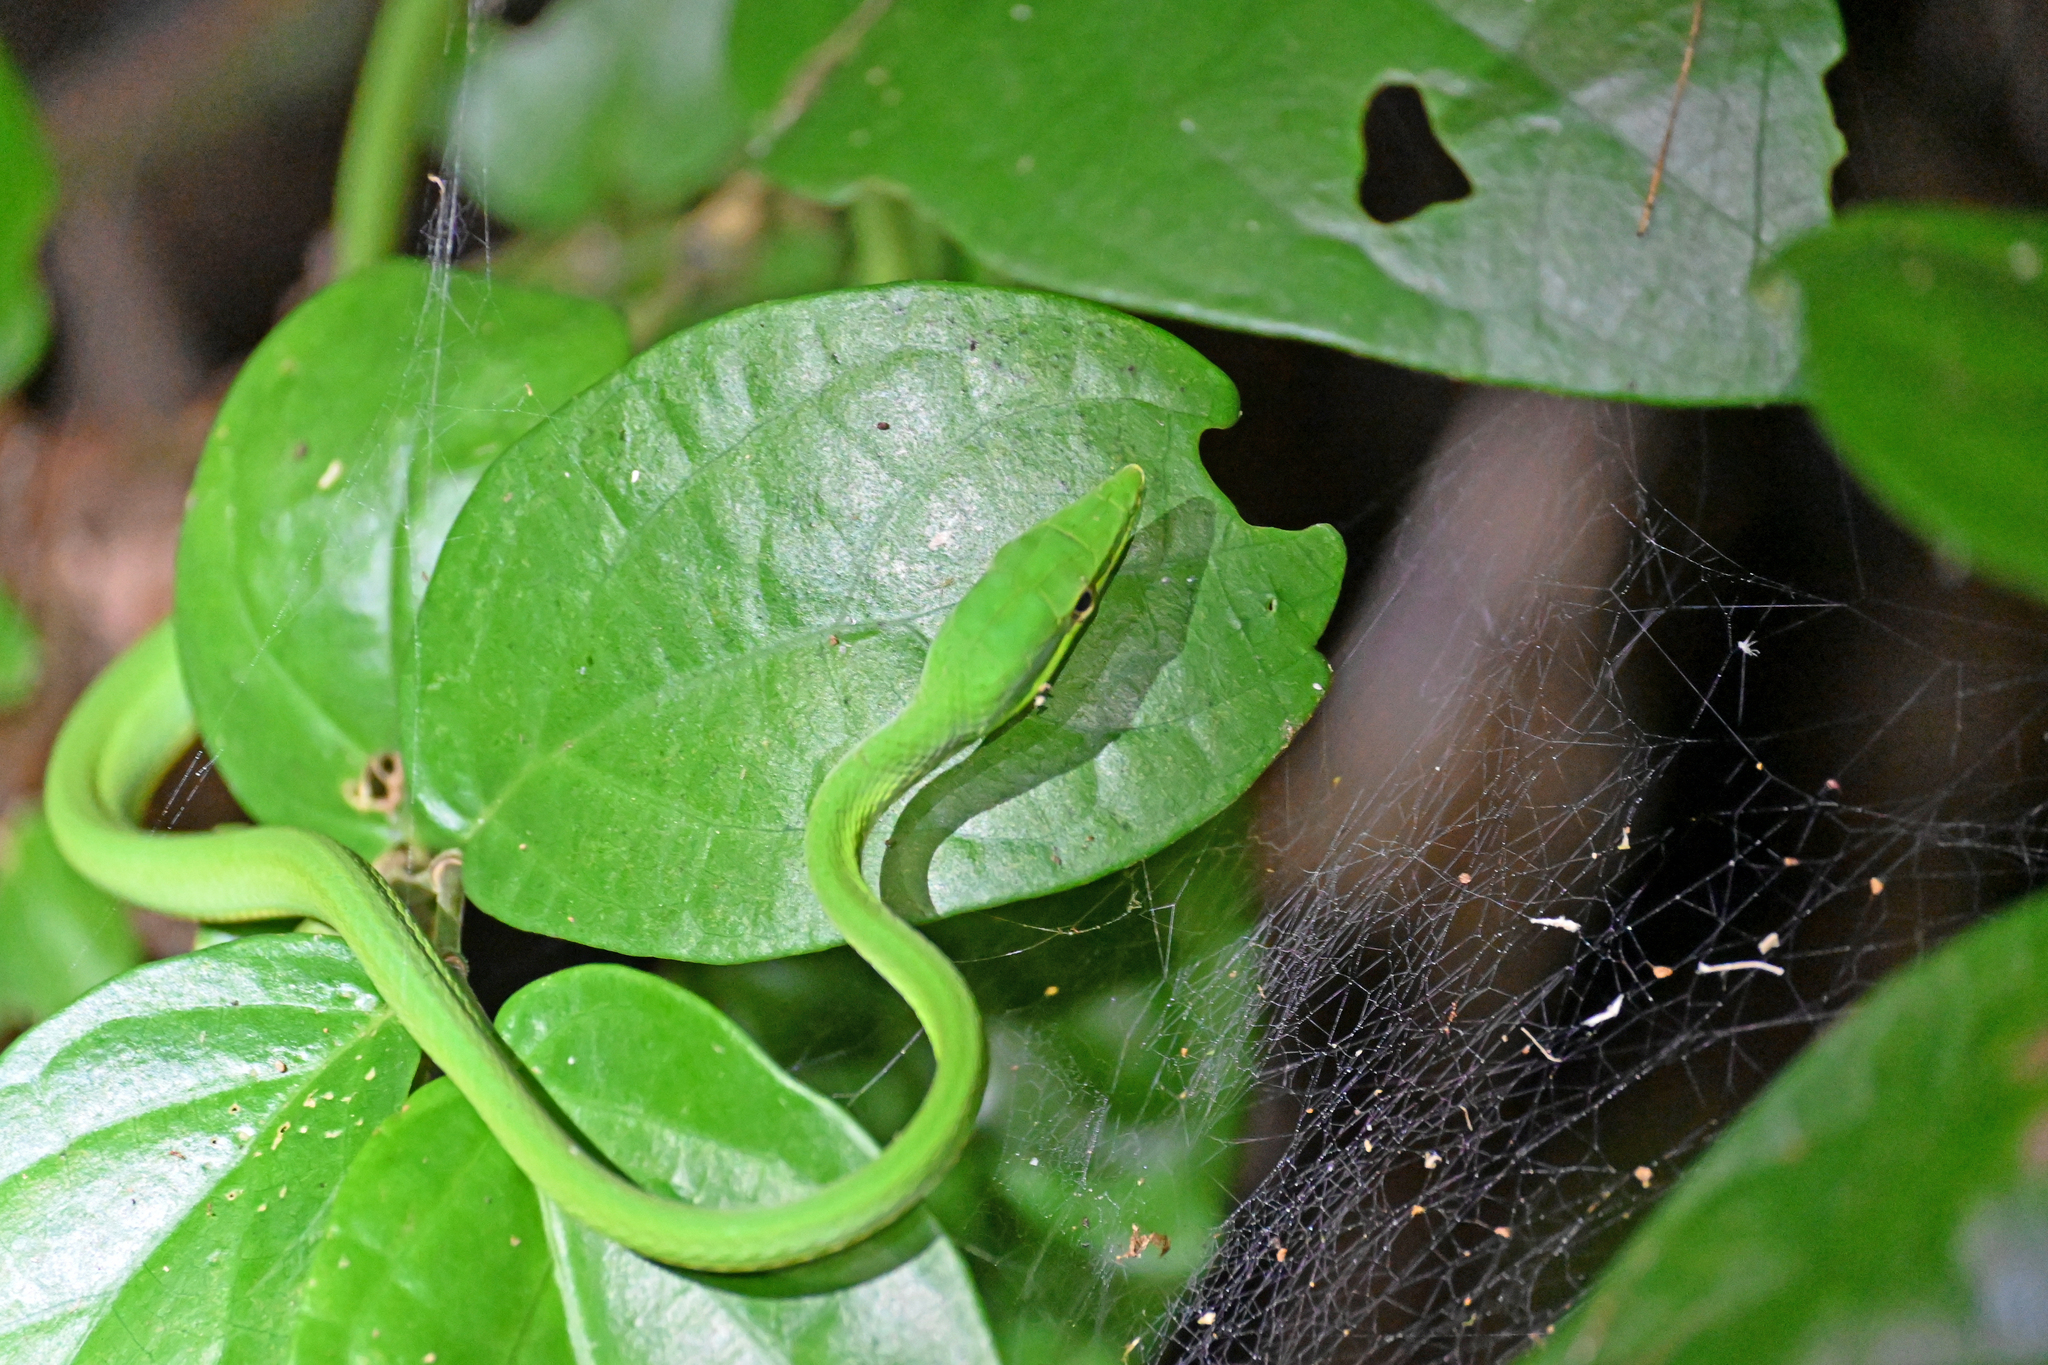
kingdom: Animalia
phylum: Chordata
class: Squamata
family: Colubridae
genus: Oxybelis
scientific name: Oxybelis fulgidus
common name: Green vine snake
